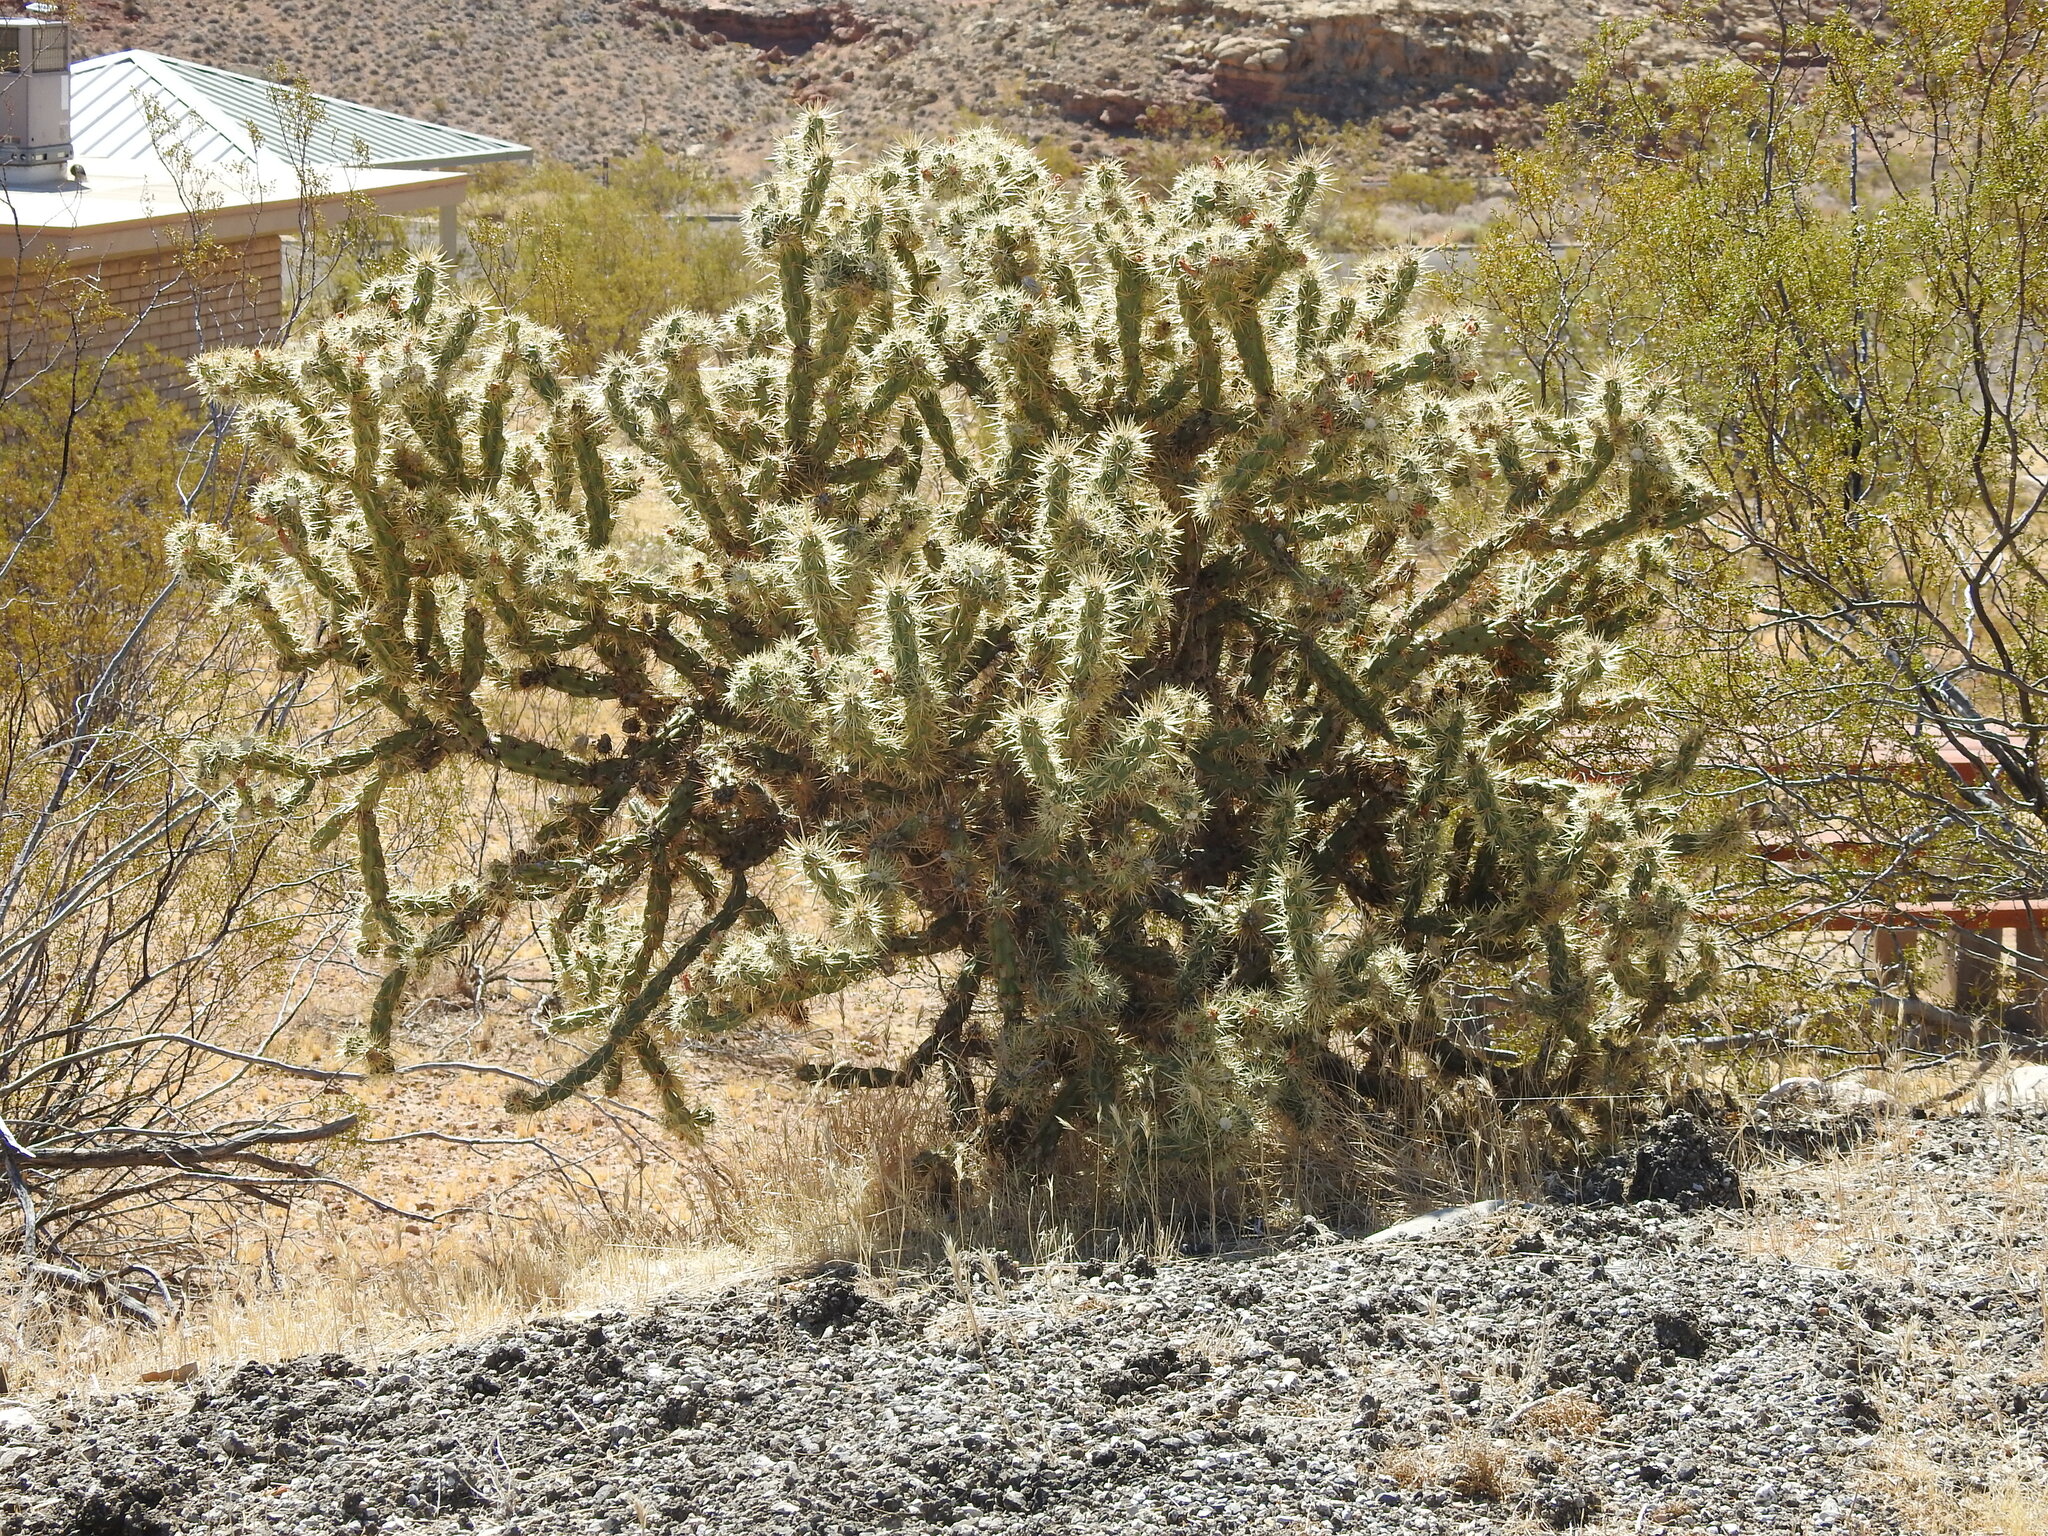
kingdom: Plantae
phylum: Tracheophyta
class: Magnoliopsida
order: Caryophyllales
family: Cactaceae
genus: Cylindropuntia
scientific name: Cylindropuntia acanthocarpa
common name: Buckhorn cholla
